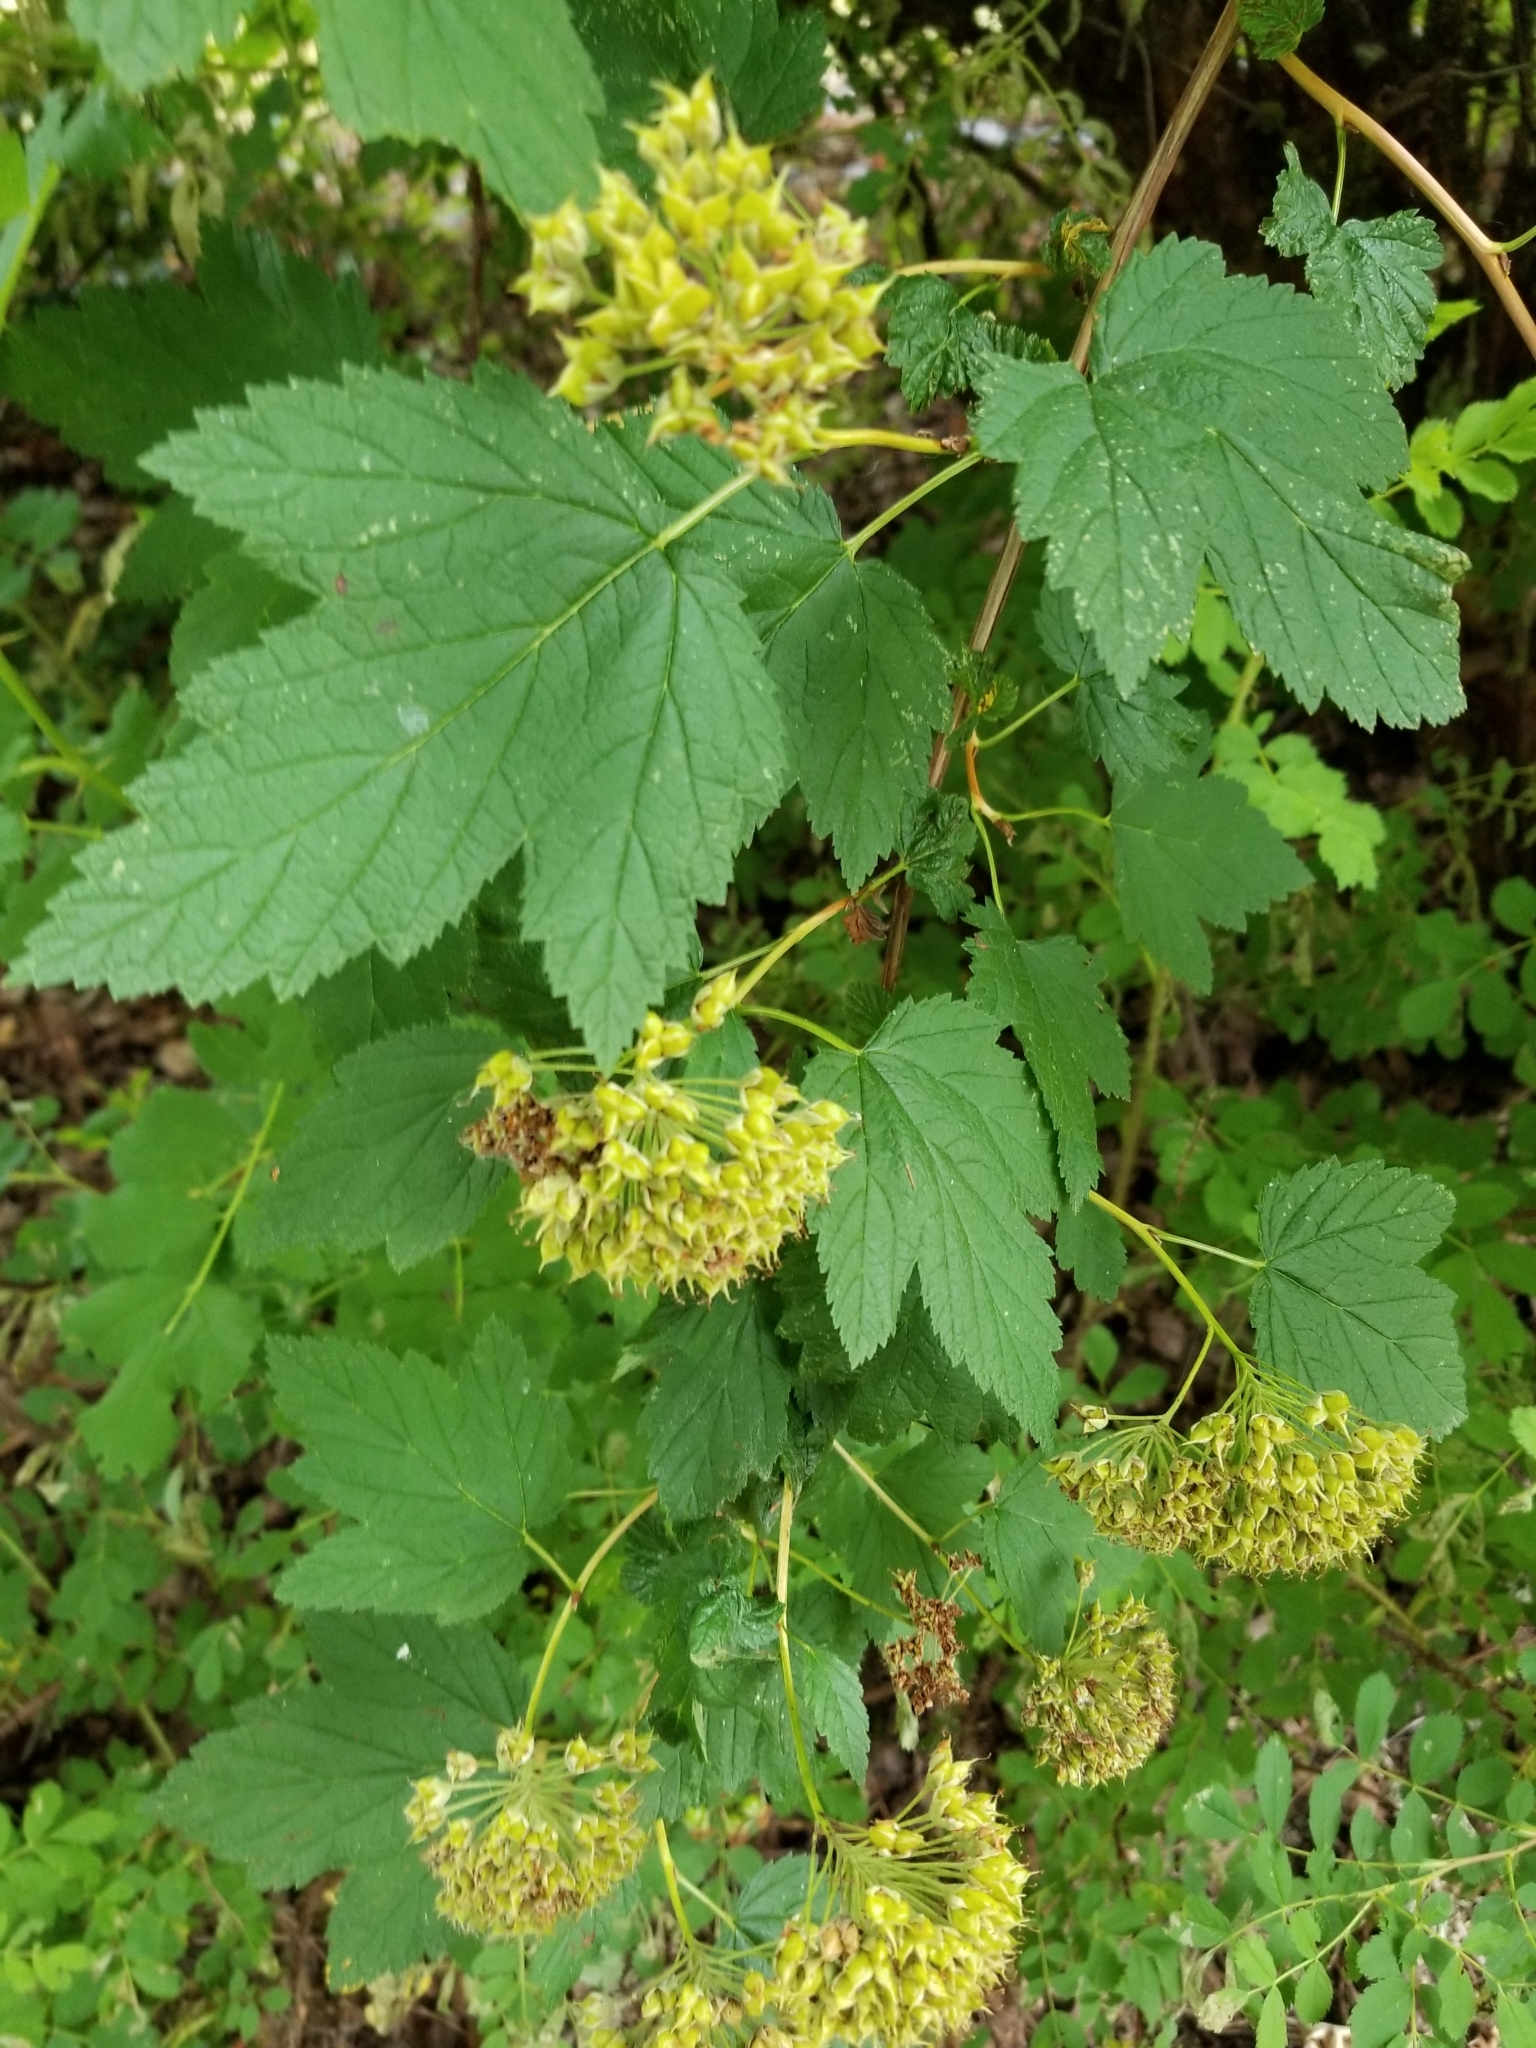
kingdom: Plantae
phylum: Tracheophyta
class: Magnoliopsida
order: Rosales
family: Rosaceae
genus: Physocarpus
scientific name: Physocarpus capitatus
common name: Pacific ninebark
